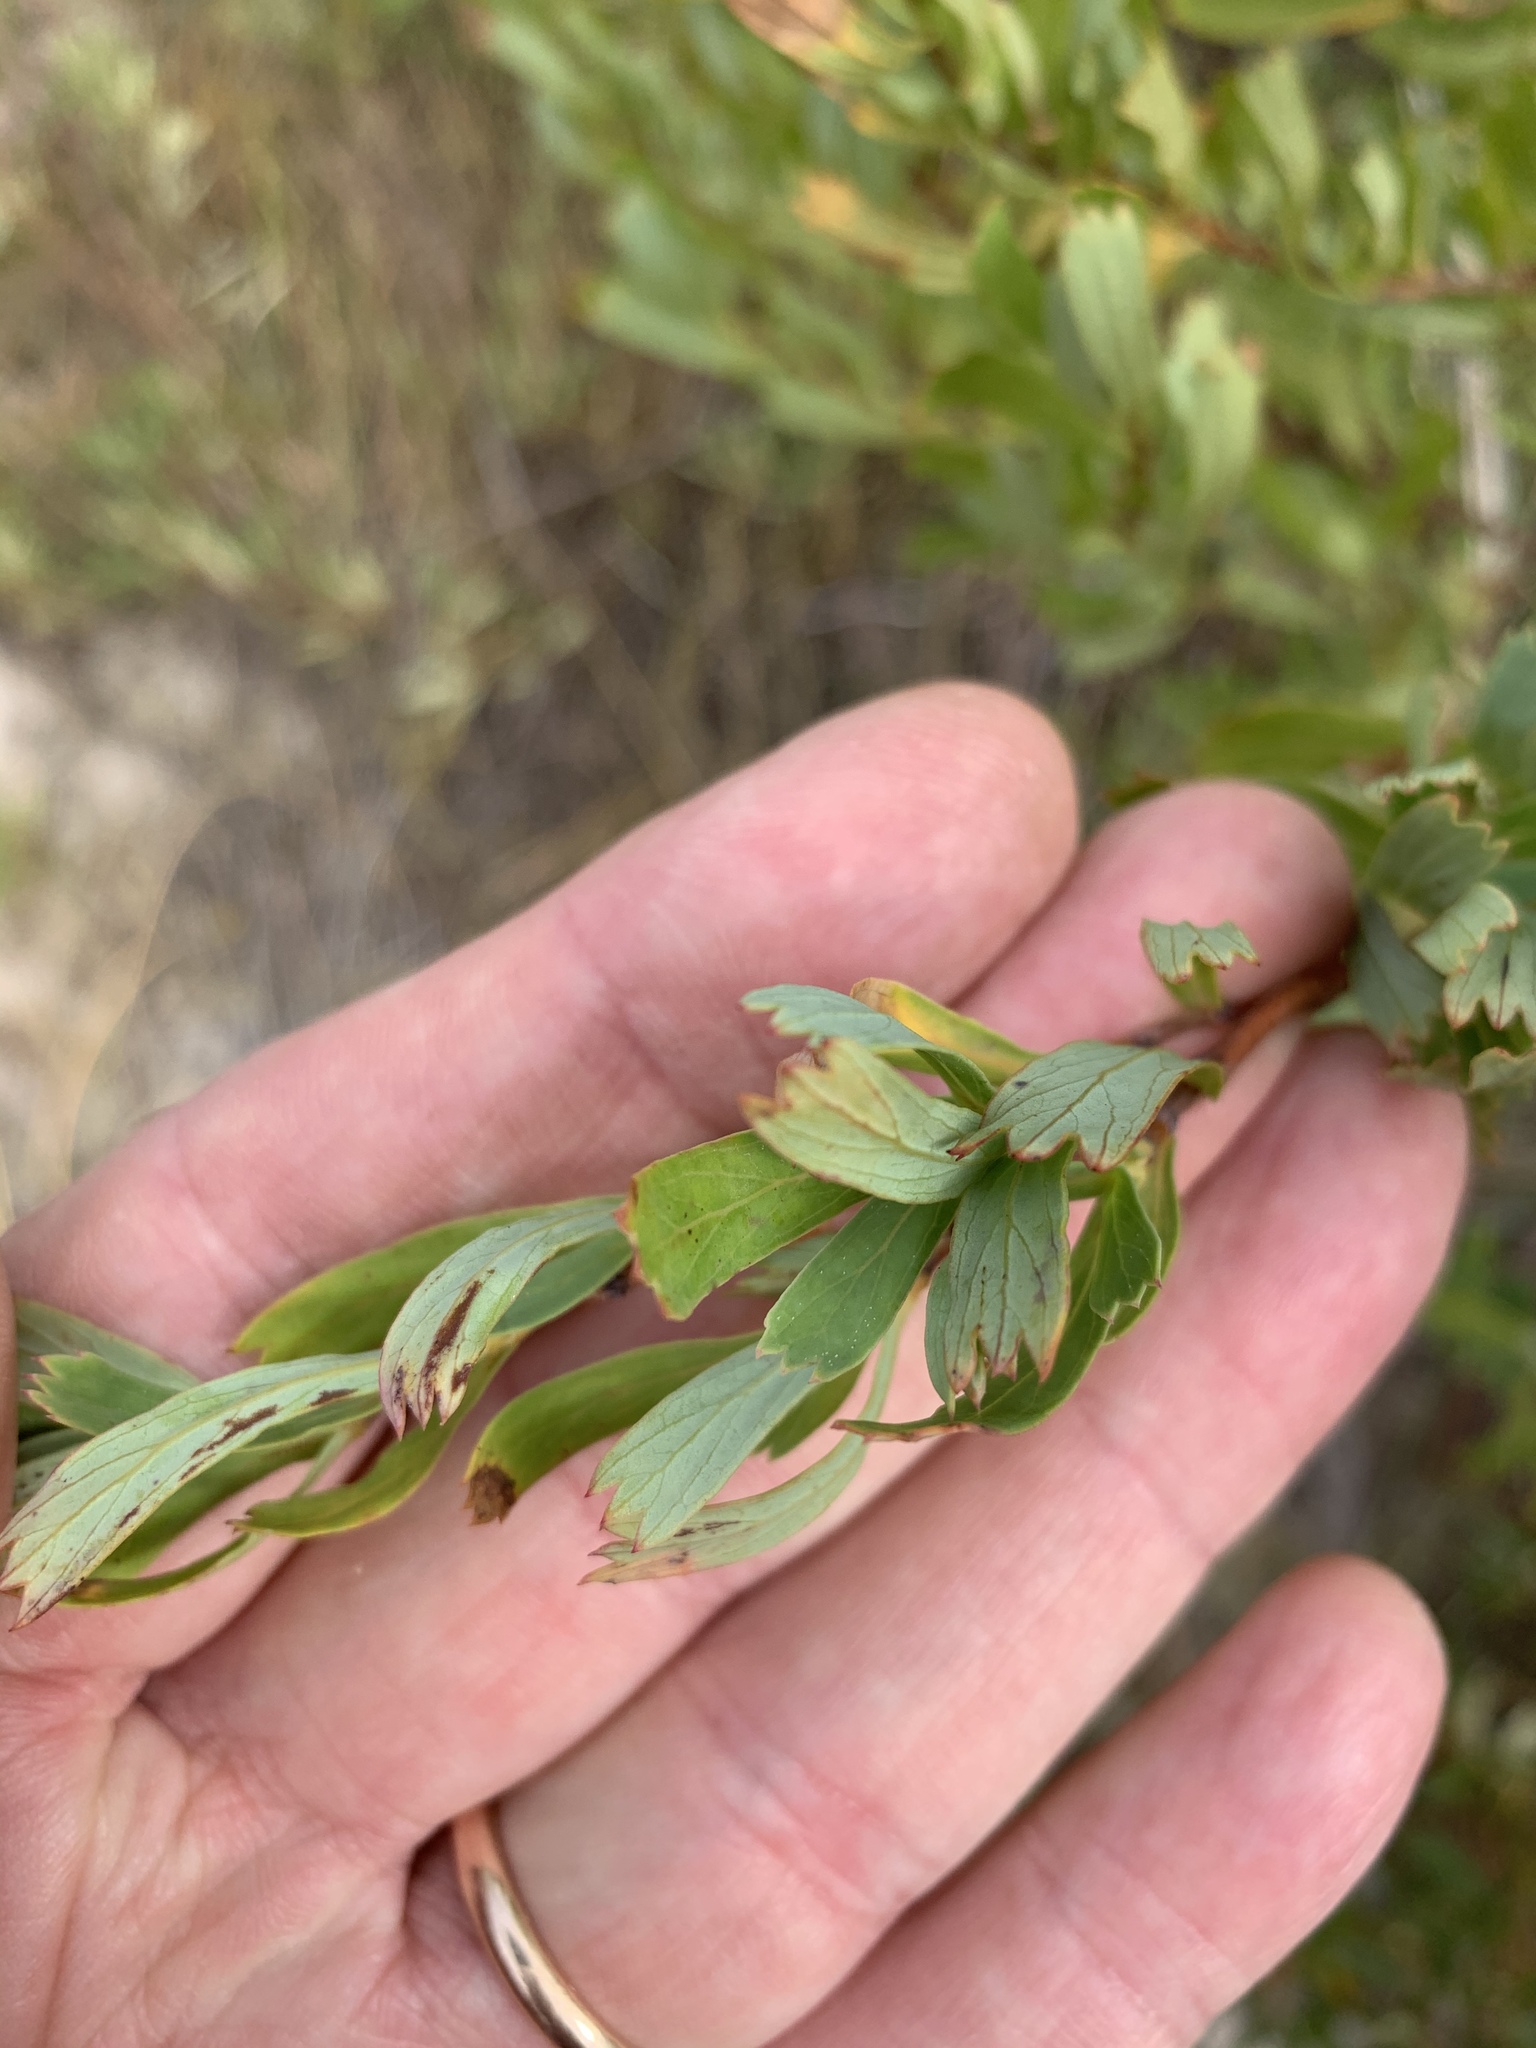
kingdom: Plantae
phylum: Tracheophyta
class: Magnoliopsida
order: Rosales
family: Rosaceae
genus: Cliffortia
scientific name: Cliffortia cuneata
